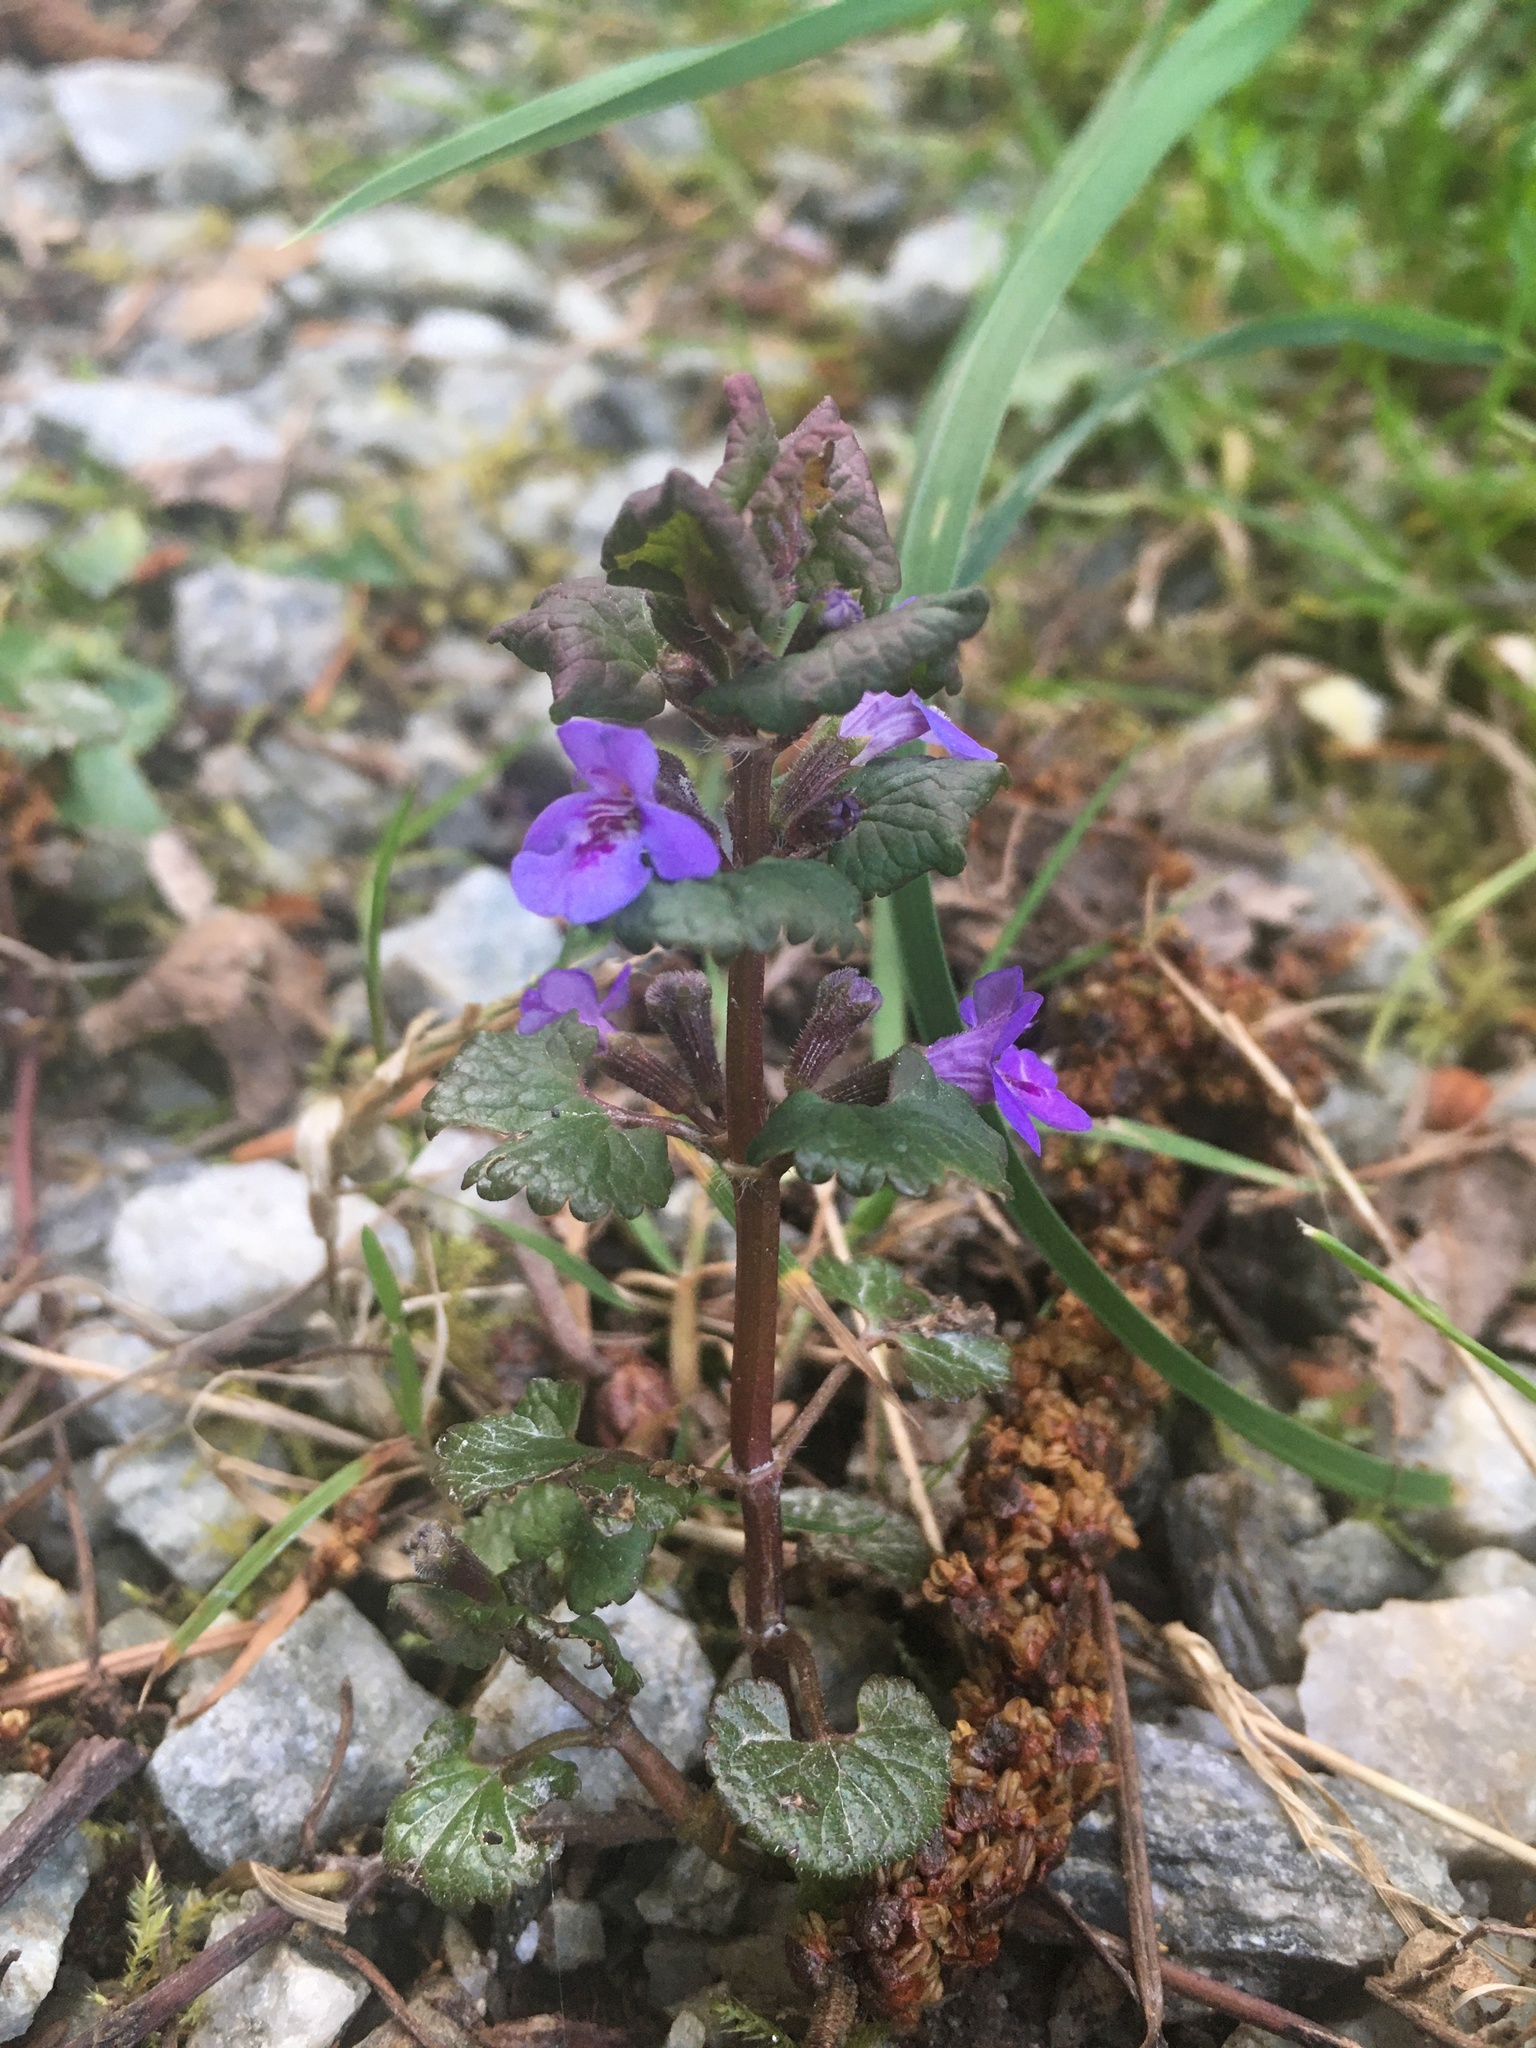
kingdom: Plantae
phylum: Tracheophyta
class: Magnoliopsida
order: Lamiales
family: Lamiaceae
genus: Glechoma
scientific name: Glechoma hederacea
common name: Ground ivy
